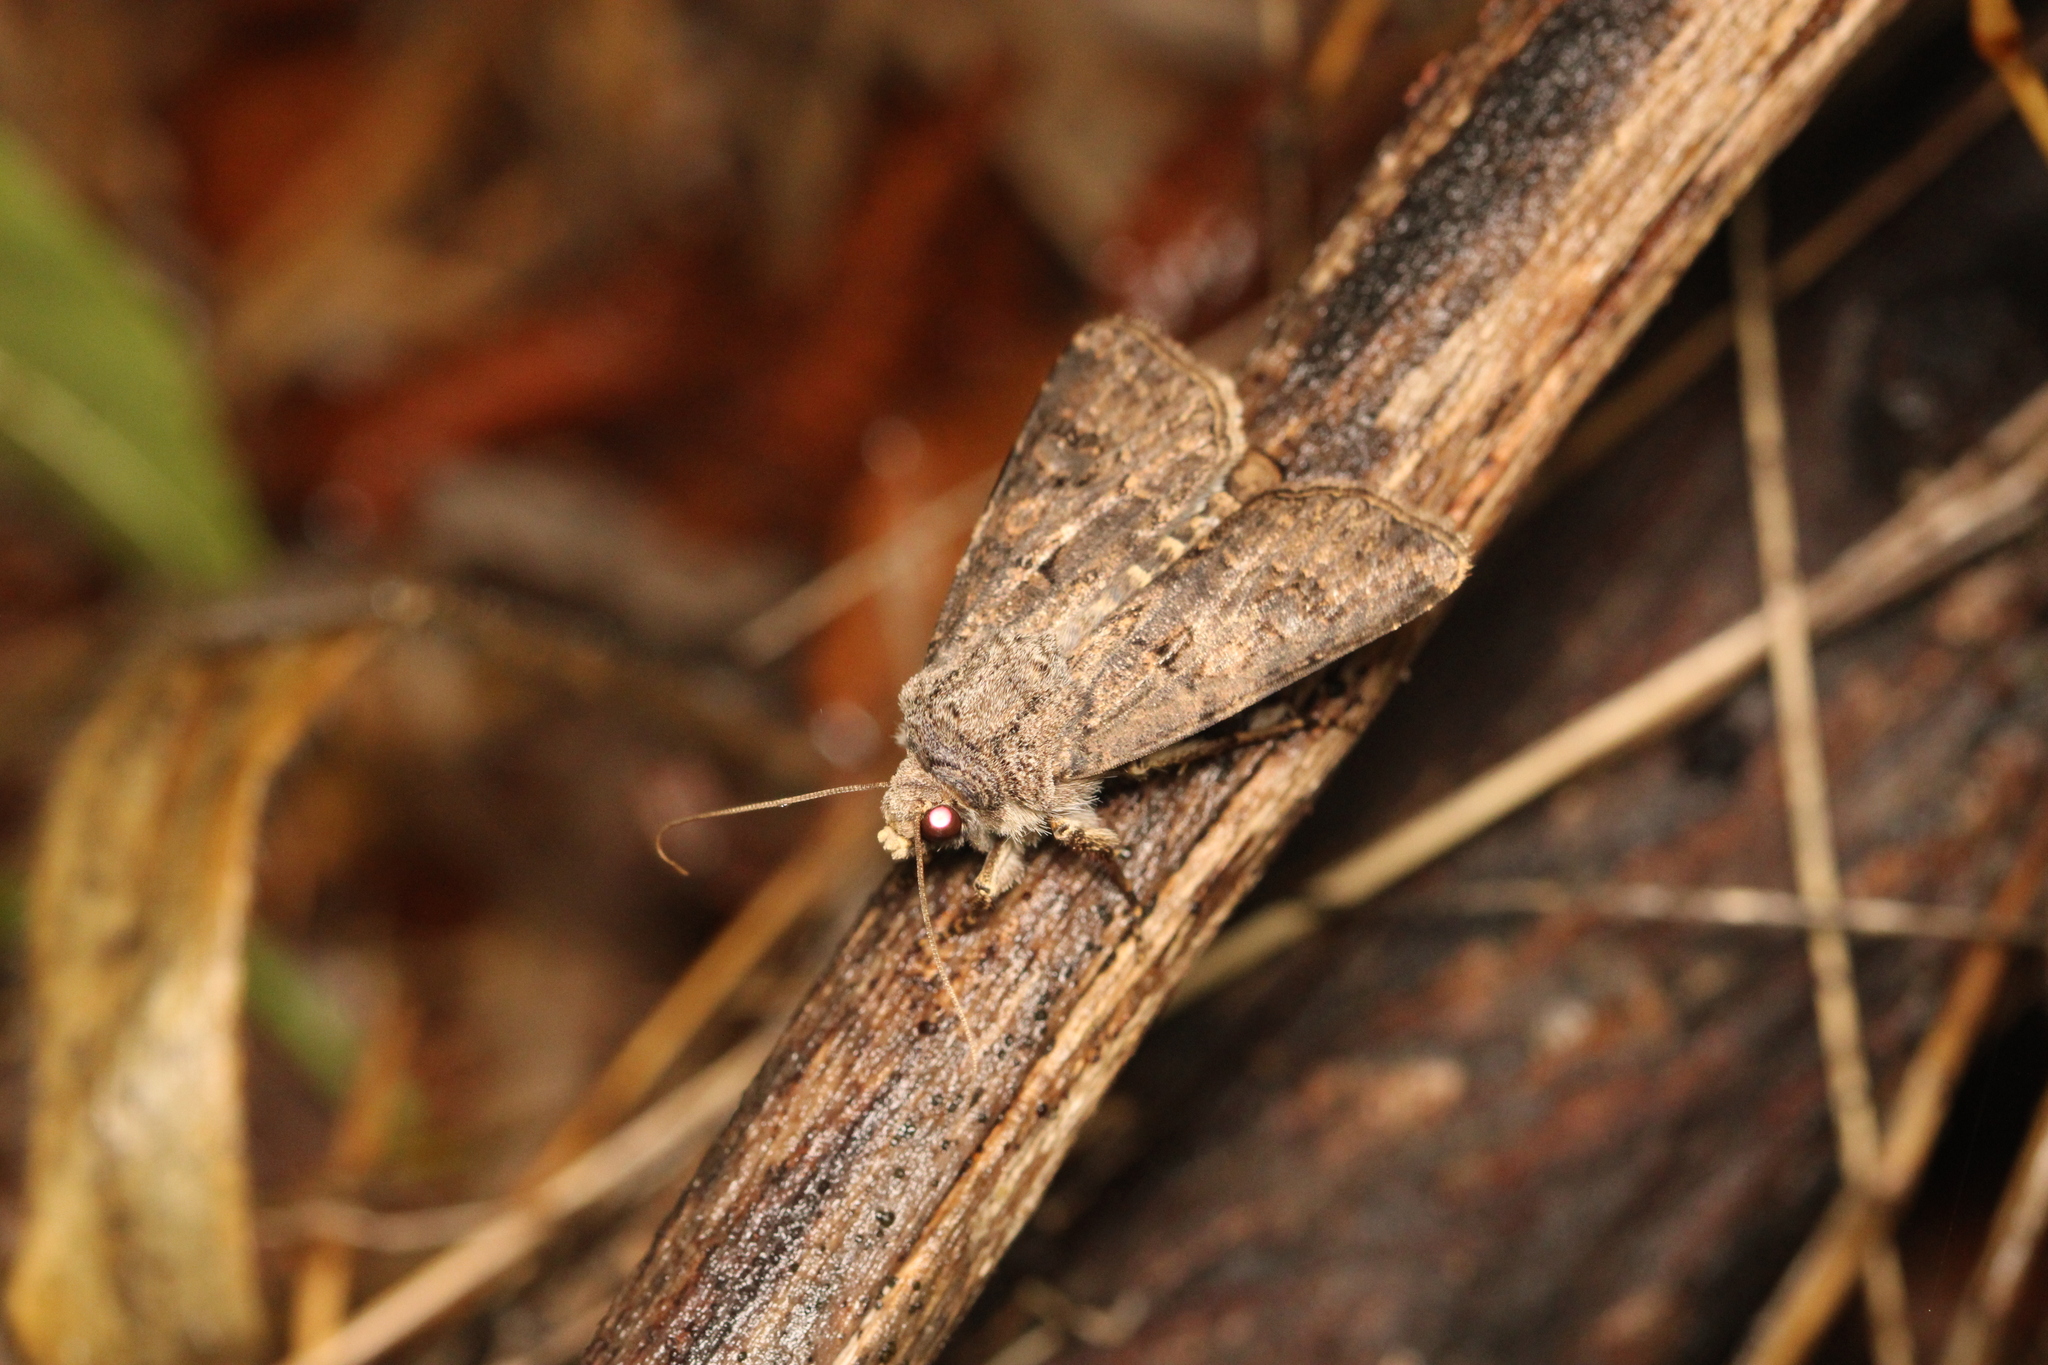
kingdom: Animalia
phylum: Arthropoda
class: Insecta
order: Lepidoptera
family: Noctuidae
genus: Agrotis
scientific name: Agrotis bigramma
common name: Great dart
